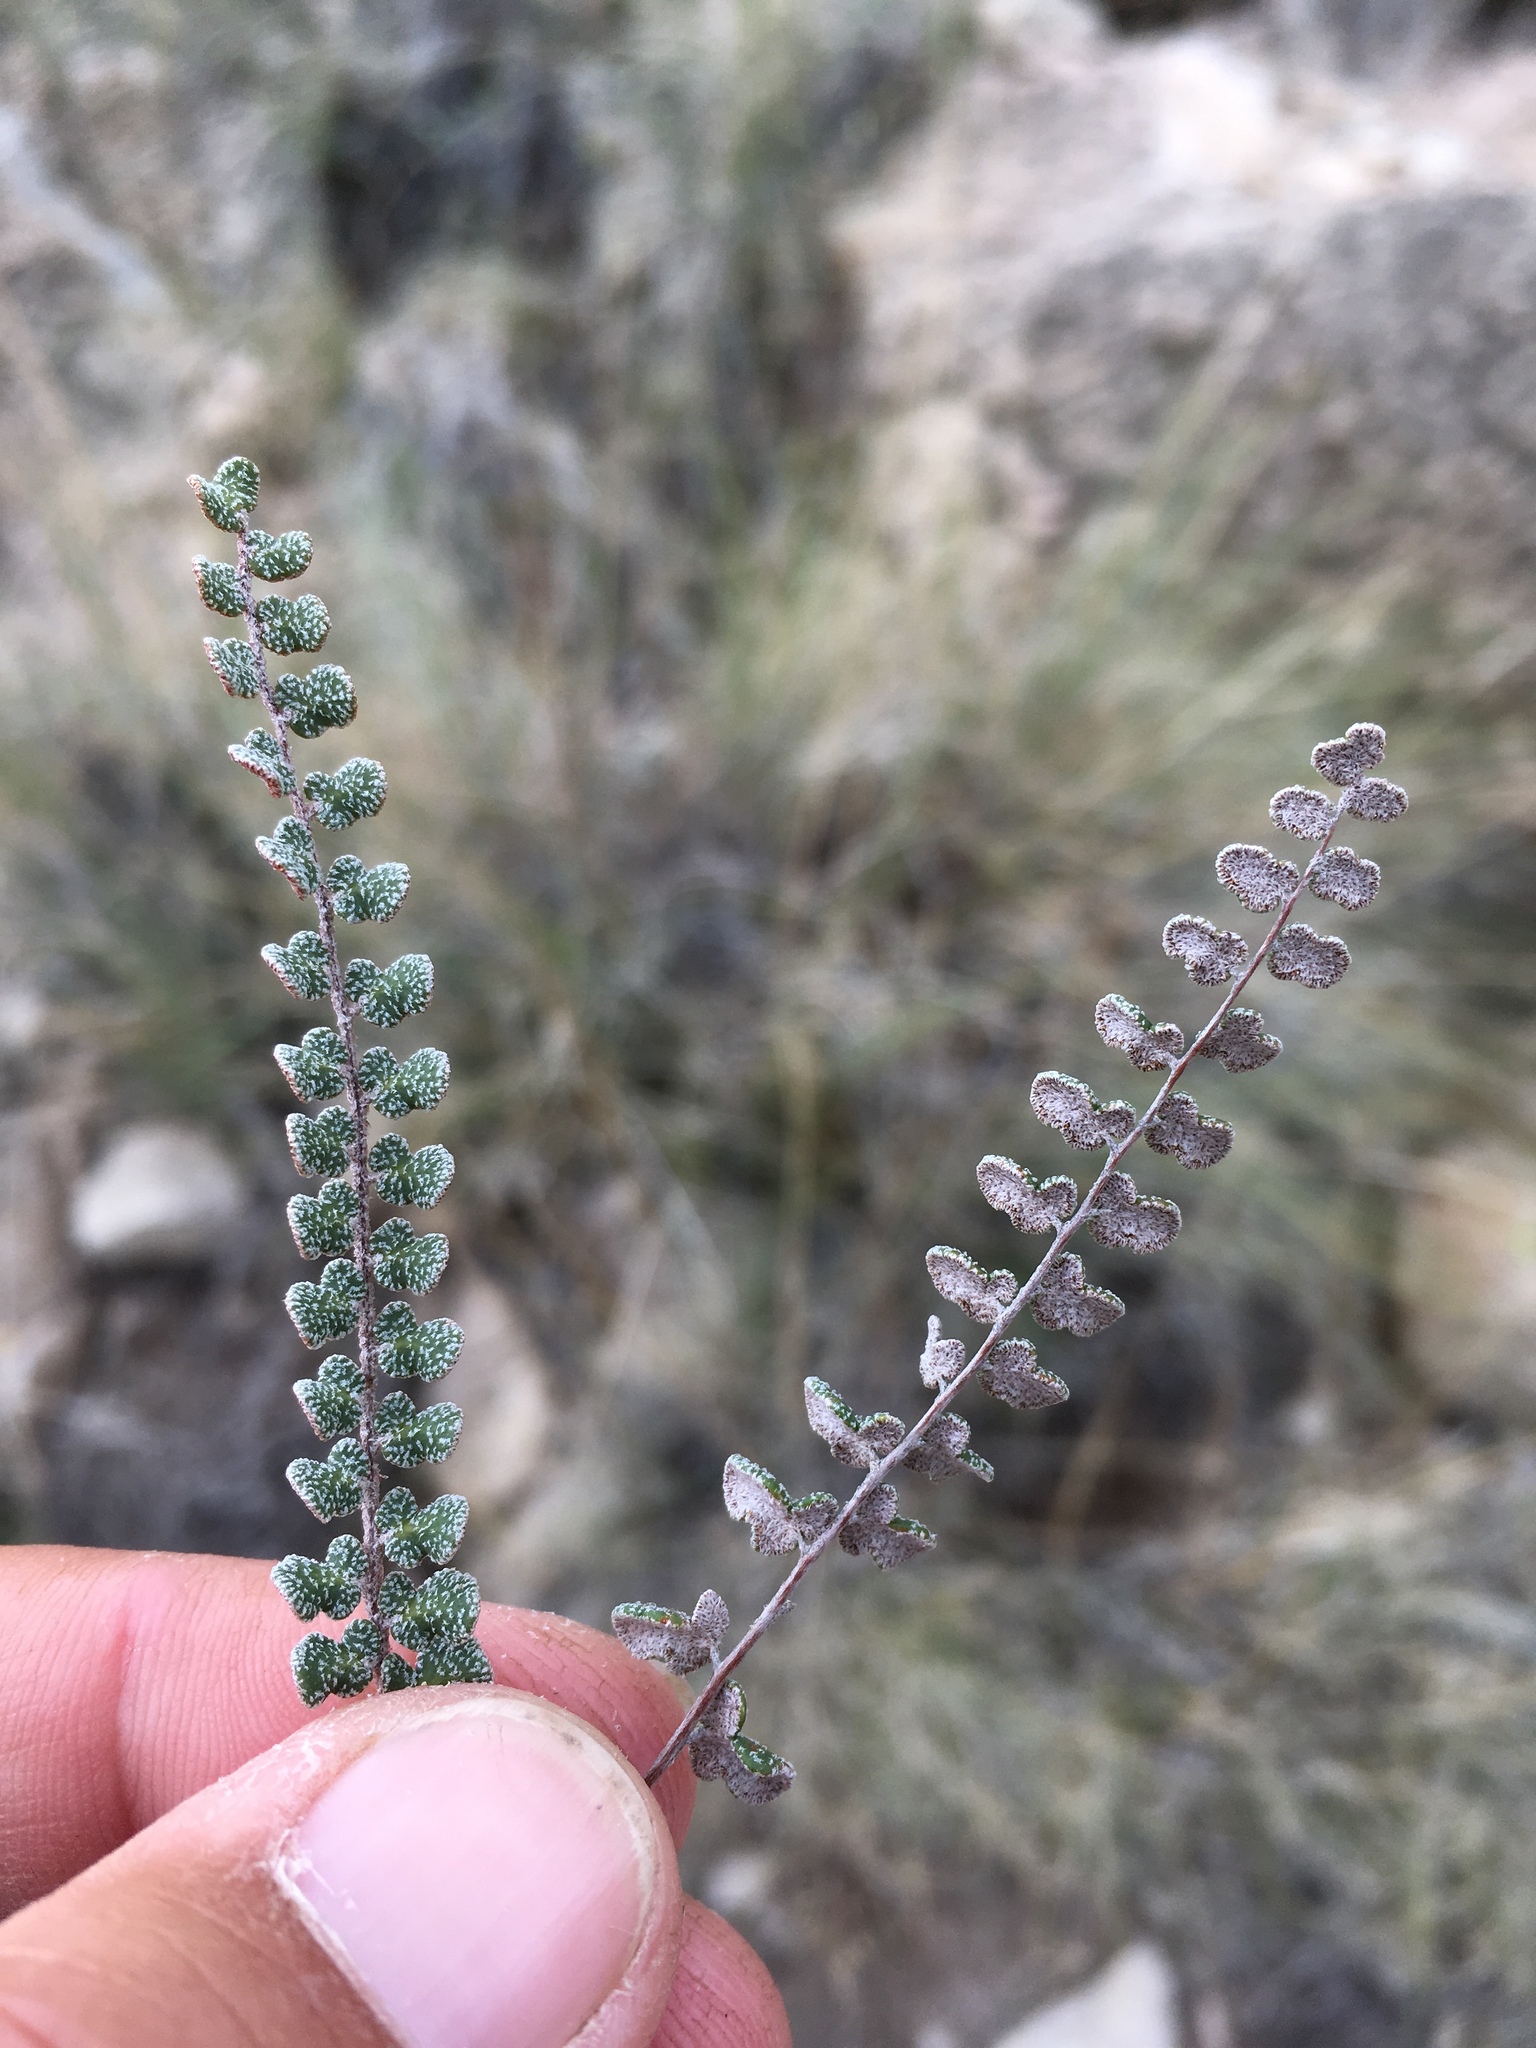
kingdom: Plantae
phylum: Tracheophyta
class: Polypodiopsida
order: Polypodiales
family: Pteridaceae
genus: Astrolepis
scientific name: Astrolepis cochisensis
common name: Scaly cloak fern
